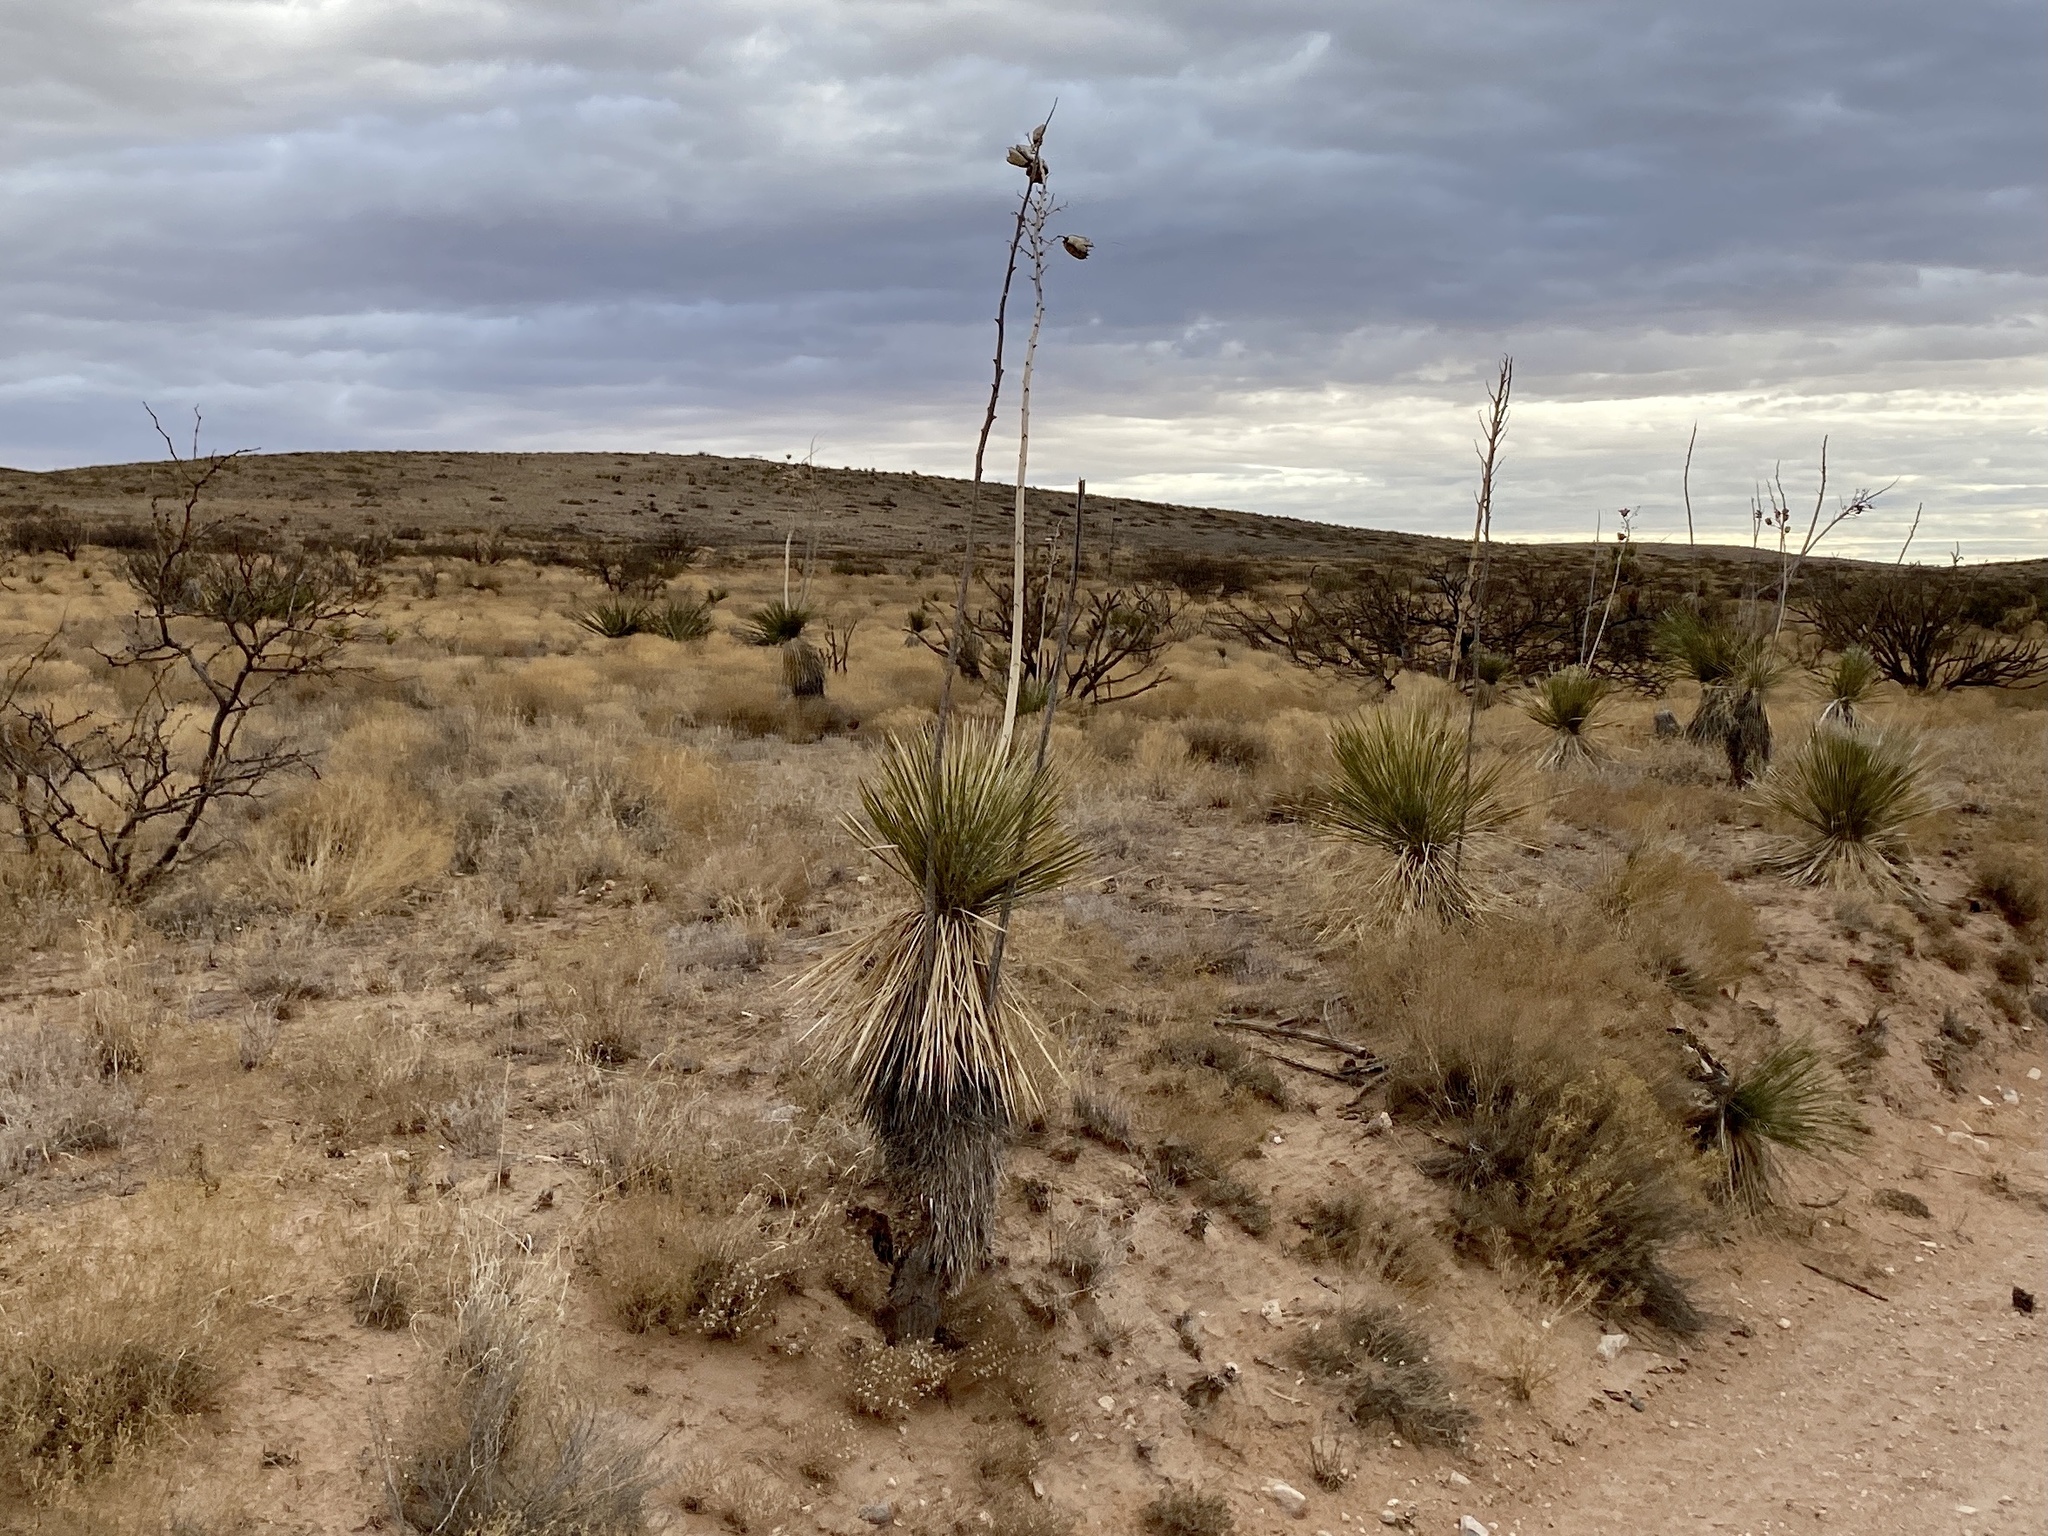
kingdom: Plantae
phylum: Tracheophyta
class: Liliopsida
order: Asparagales
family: Asparagaceae
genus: Yucca
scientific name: Yucca elata
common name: Palmella
